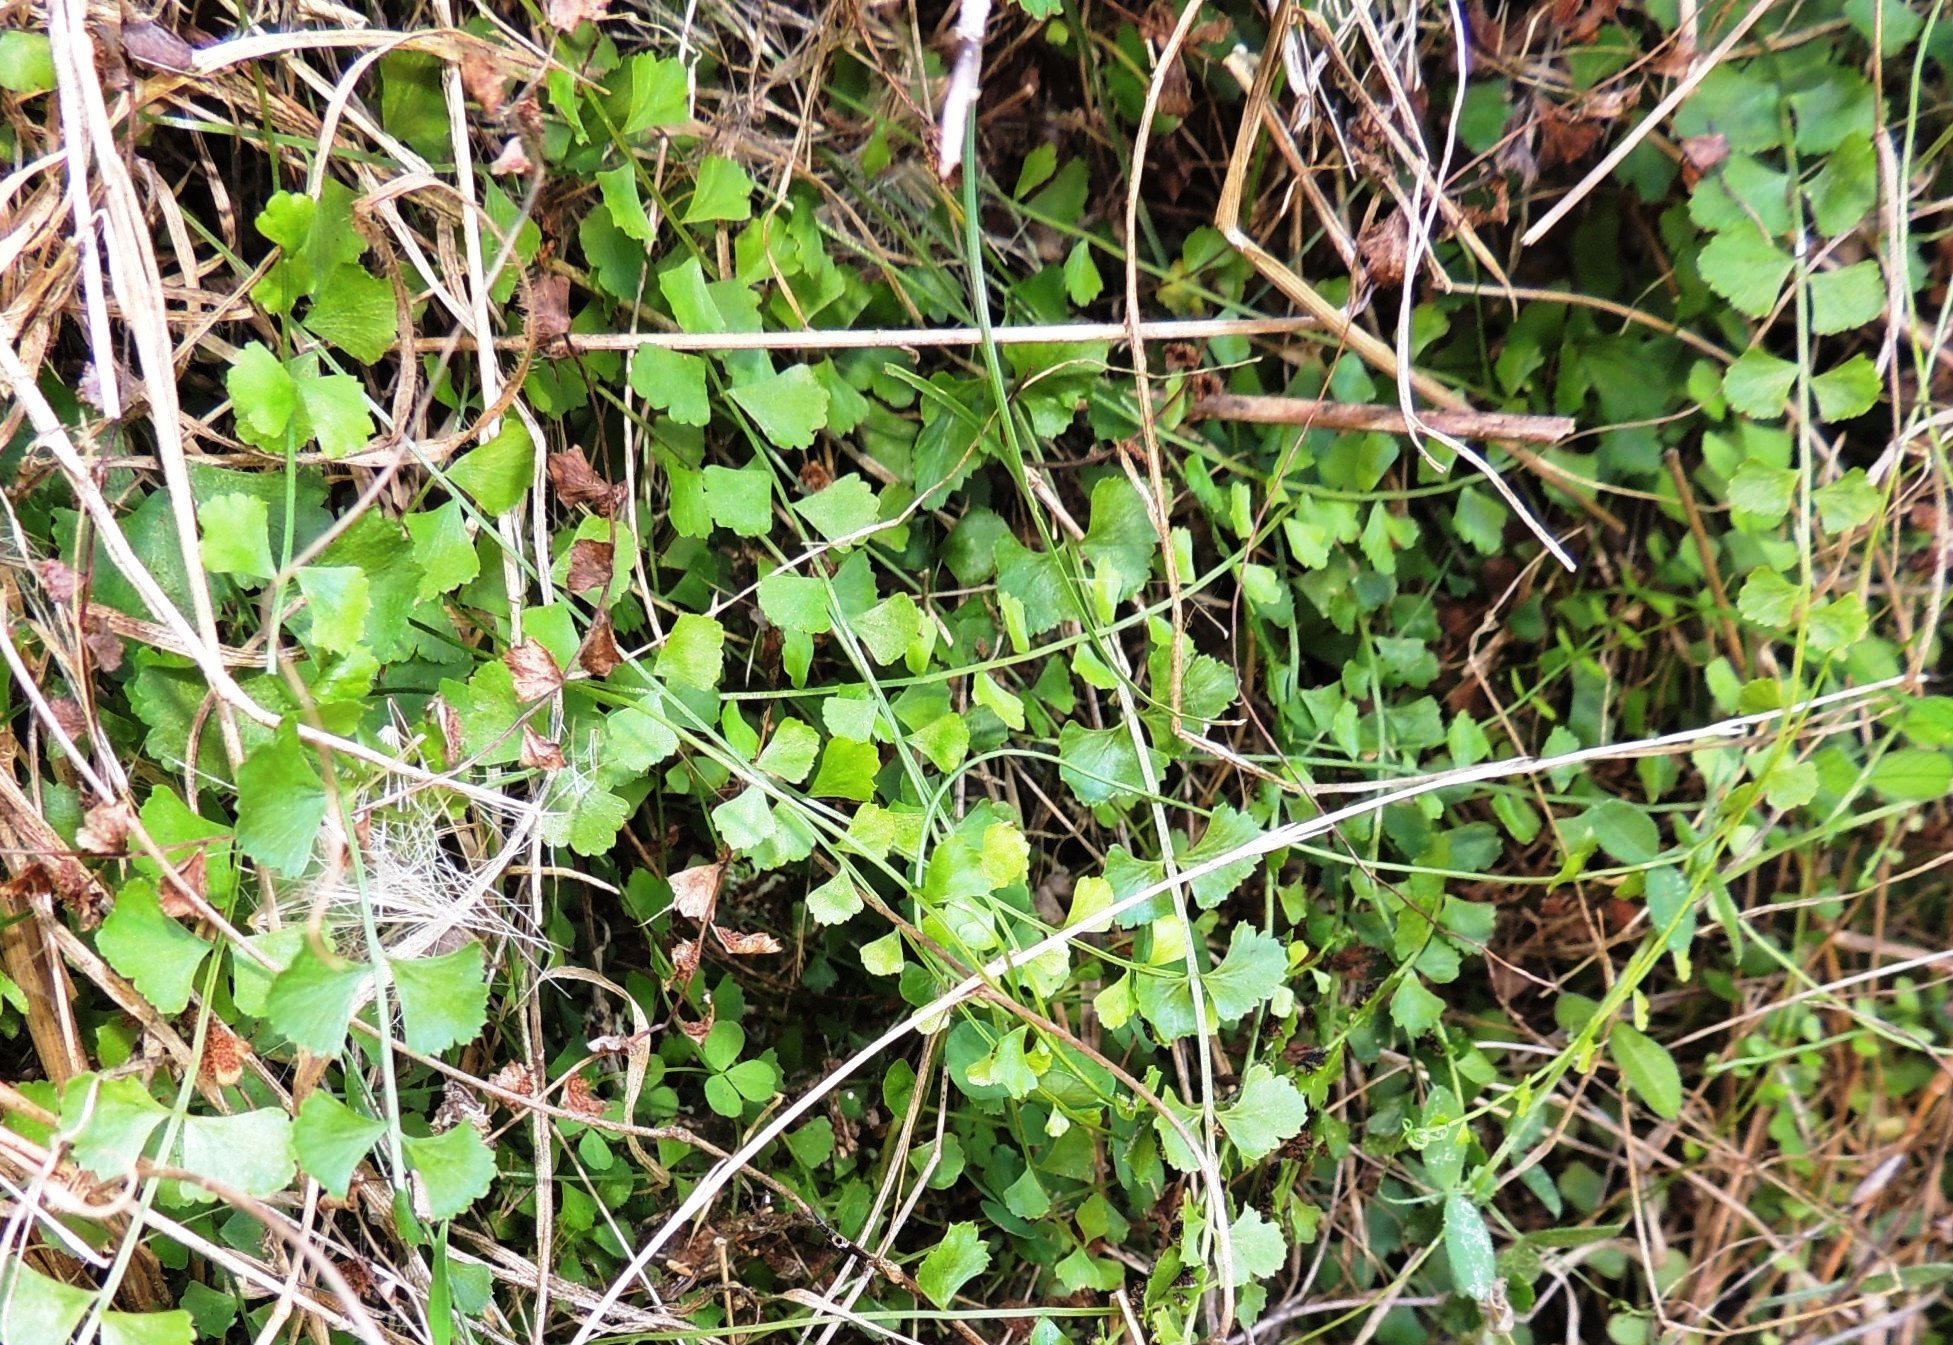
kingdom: Plantae
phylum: Tracheophyta
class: Polypodiopsida
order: Polypodiales
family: Aspleniaceae
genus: Asplenium
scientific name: Asplenium flabellifolium
